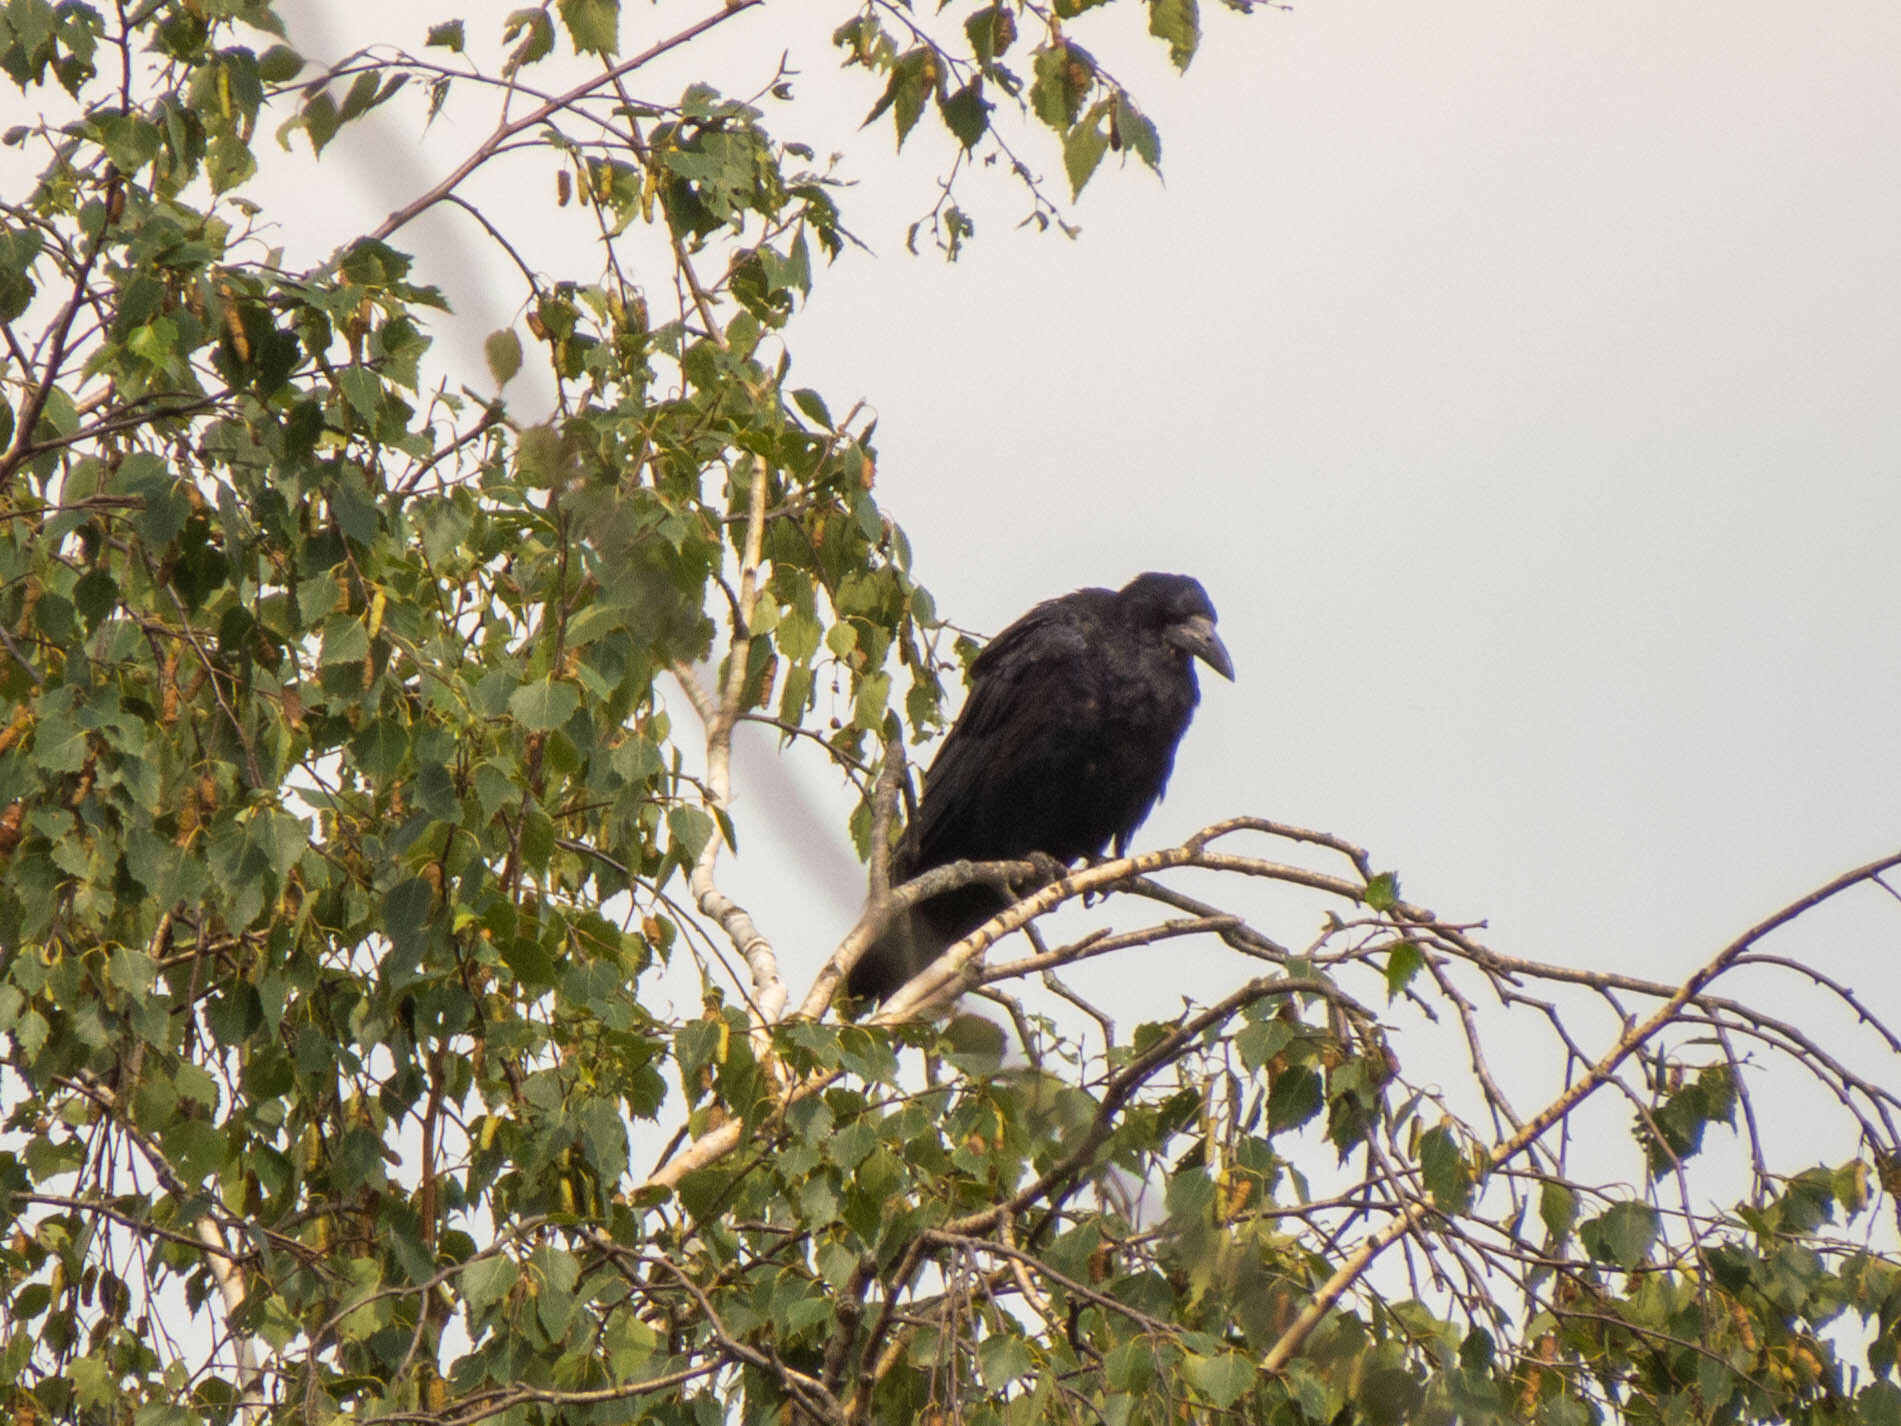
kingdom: Animalia
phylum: Chordata
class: Aves
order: Passeriformes
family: Corvidae
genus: Corvus
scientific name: Corvus frugilegus
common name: Rook
